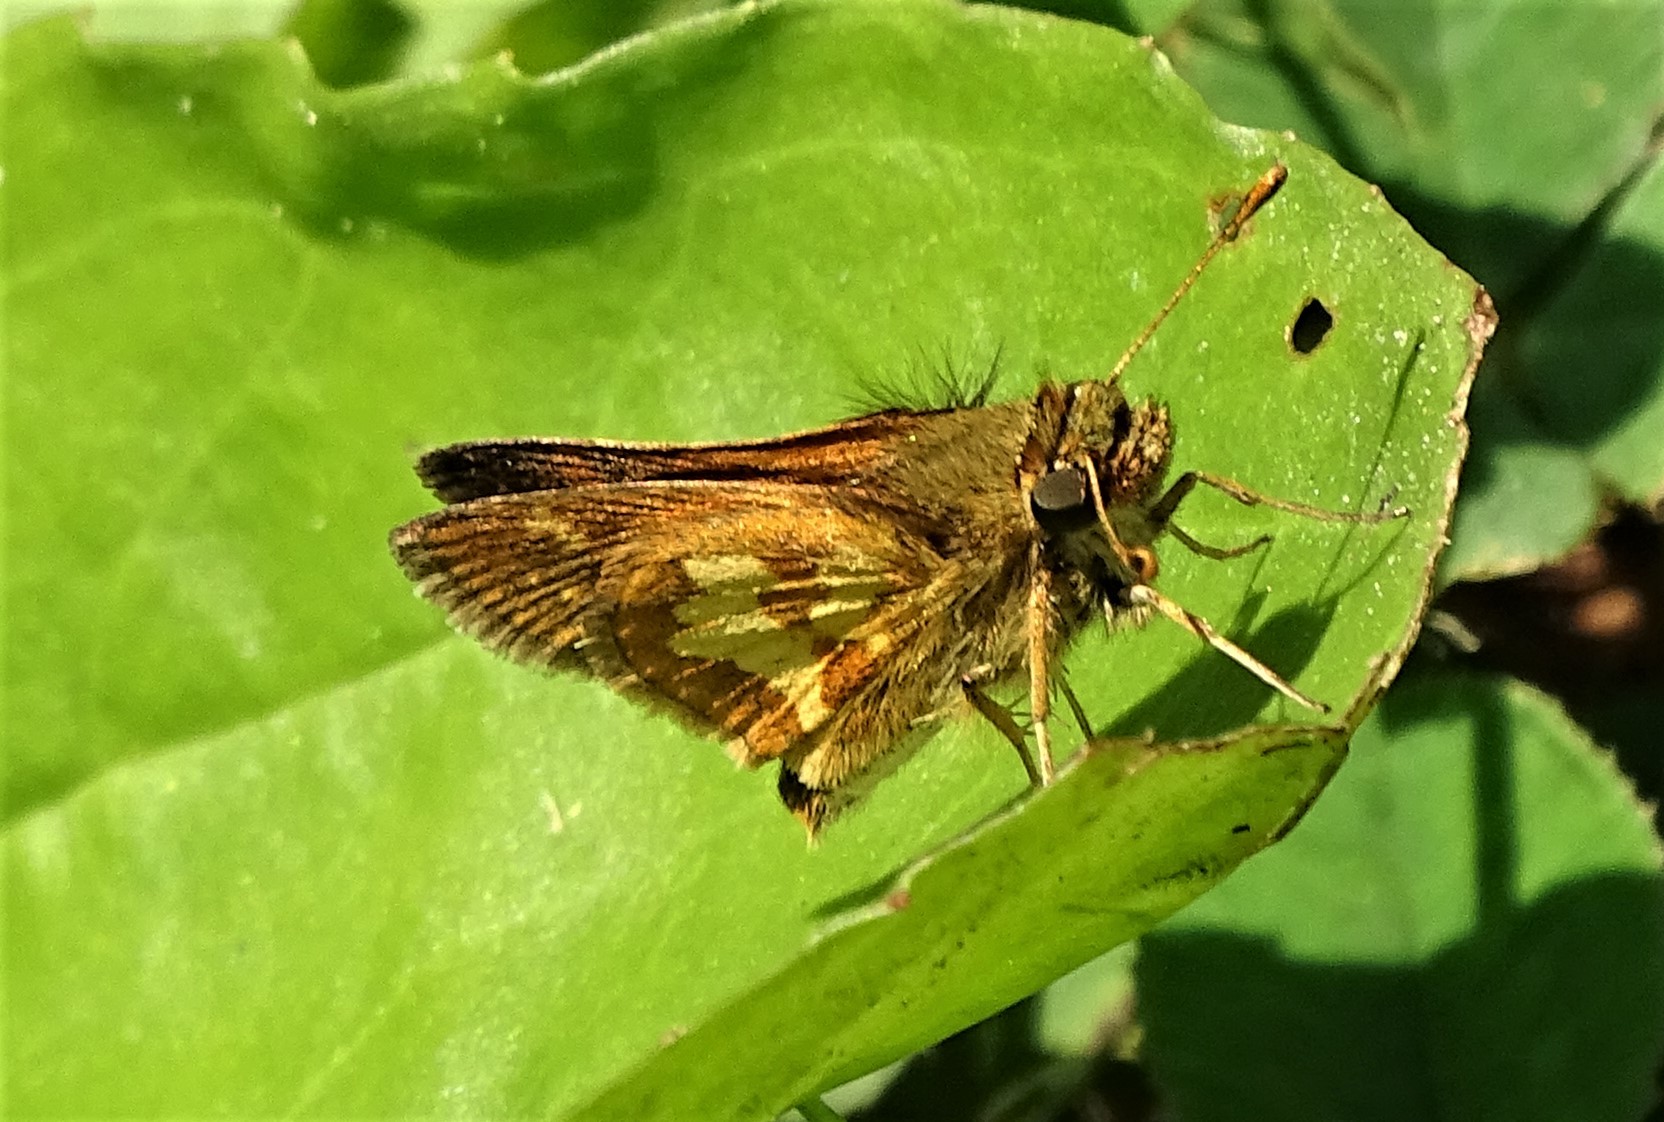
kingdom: Animalia
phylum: Arthropoda
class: Insecta
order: Lepidoptera
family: Hesperiidae
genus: Polites
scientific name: Polites coras
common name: Peck's skipper
